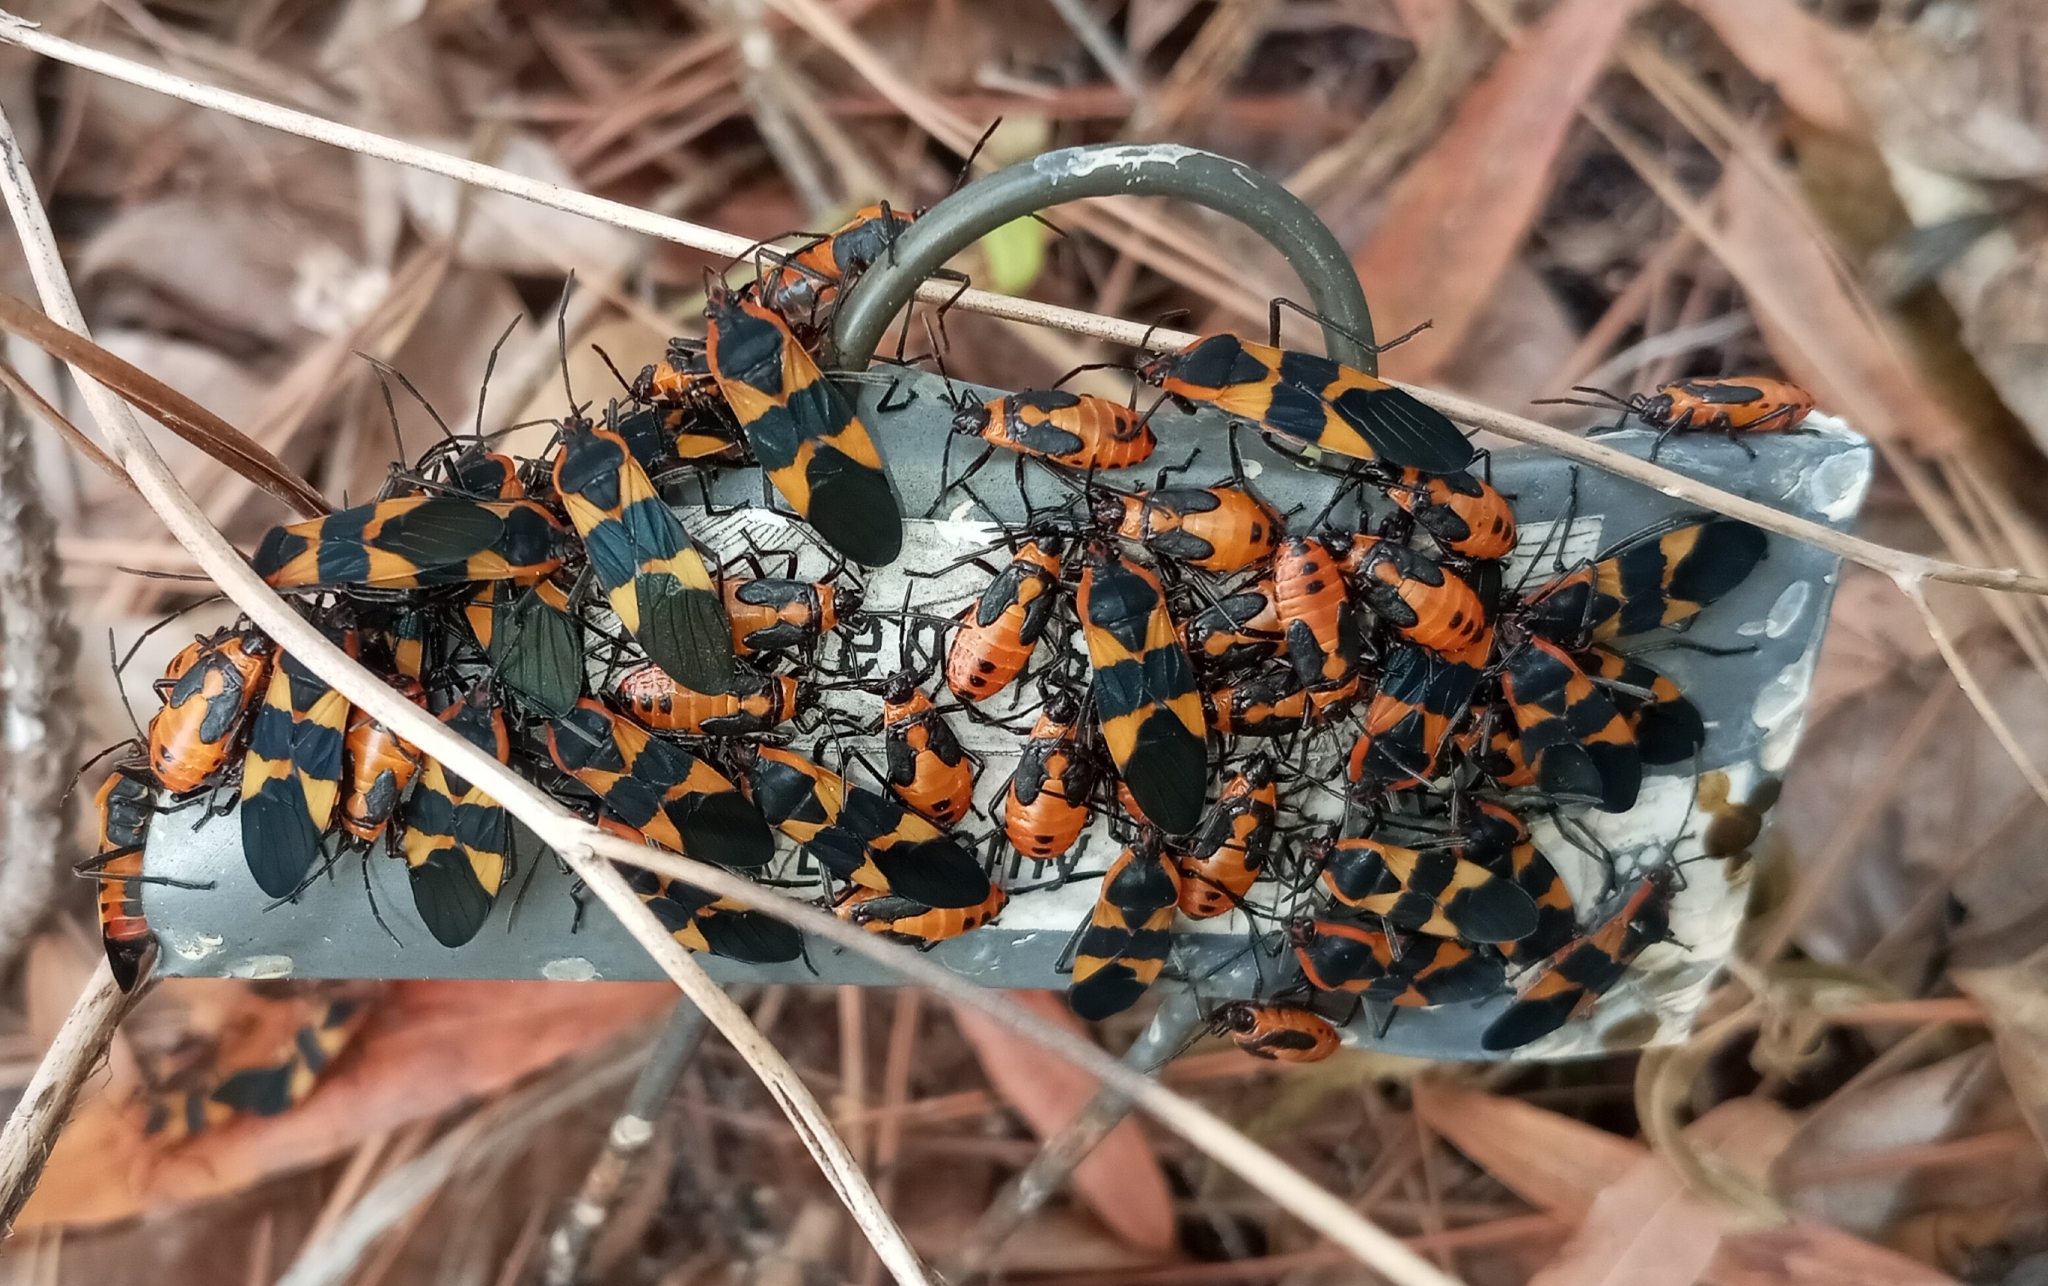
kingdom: Animalia
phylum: Arthropoda
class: Insecta
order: Hemiptera
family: Lygaeidae
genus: Oncopeltus
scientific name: Oncopeltus fasciatus
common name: Large milkweed bug
